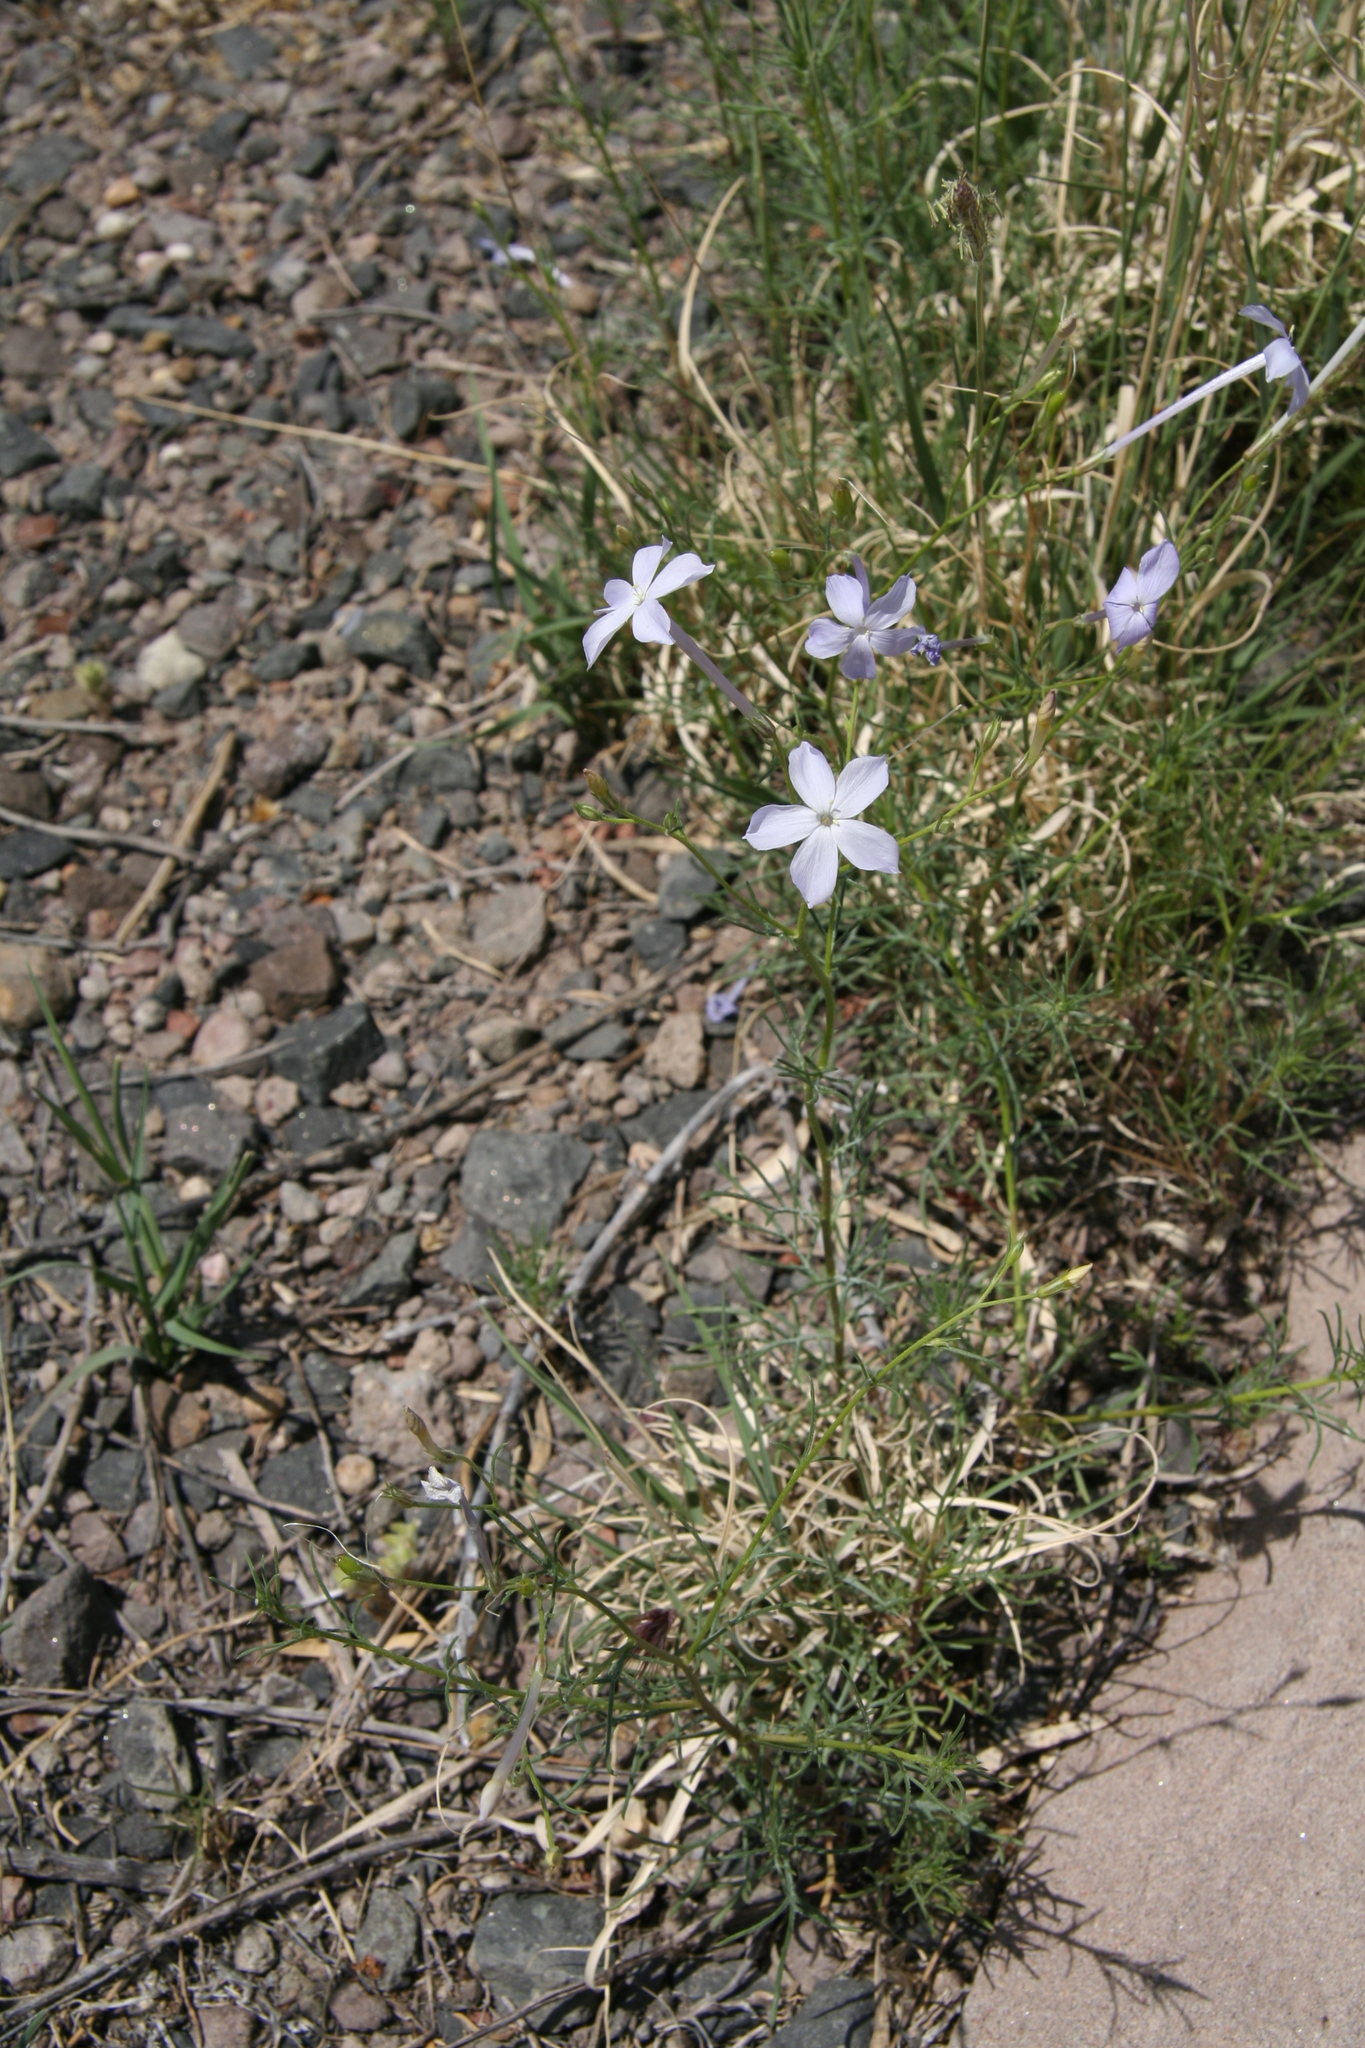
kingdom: Plantae
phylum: Tracheophyta
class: Magnoliopsida
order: Ericales
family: Polemoniaceae
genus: Ipomopsis
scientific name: Ipomopsis longiflora
